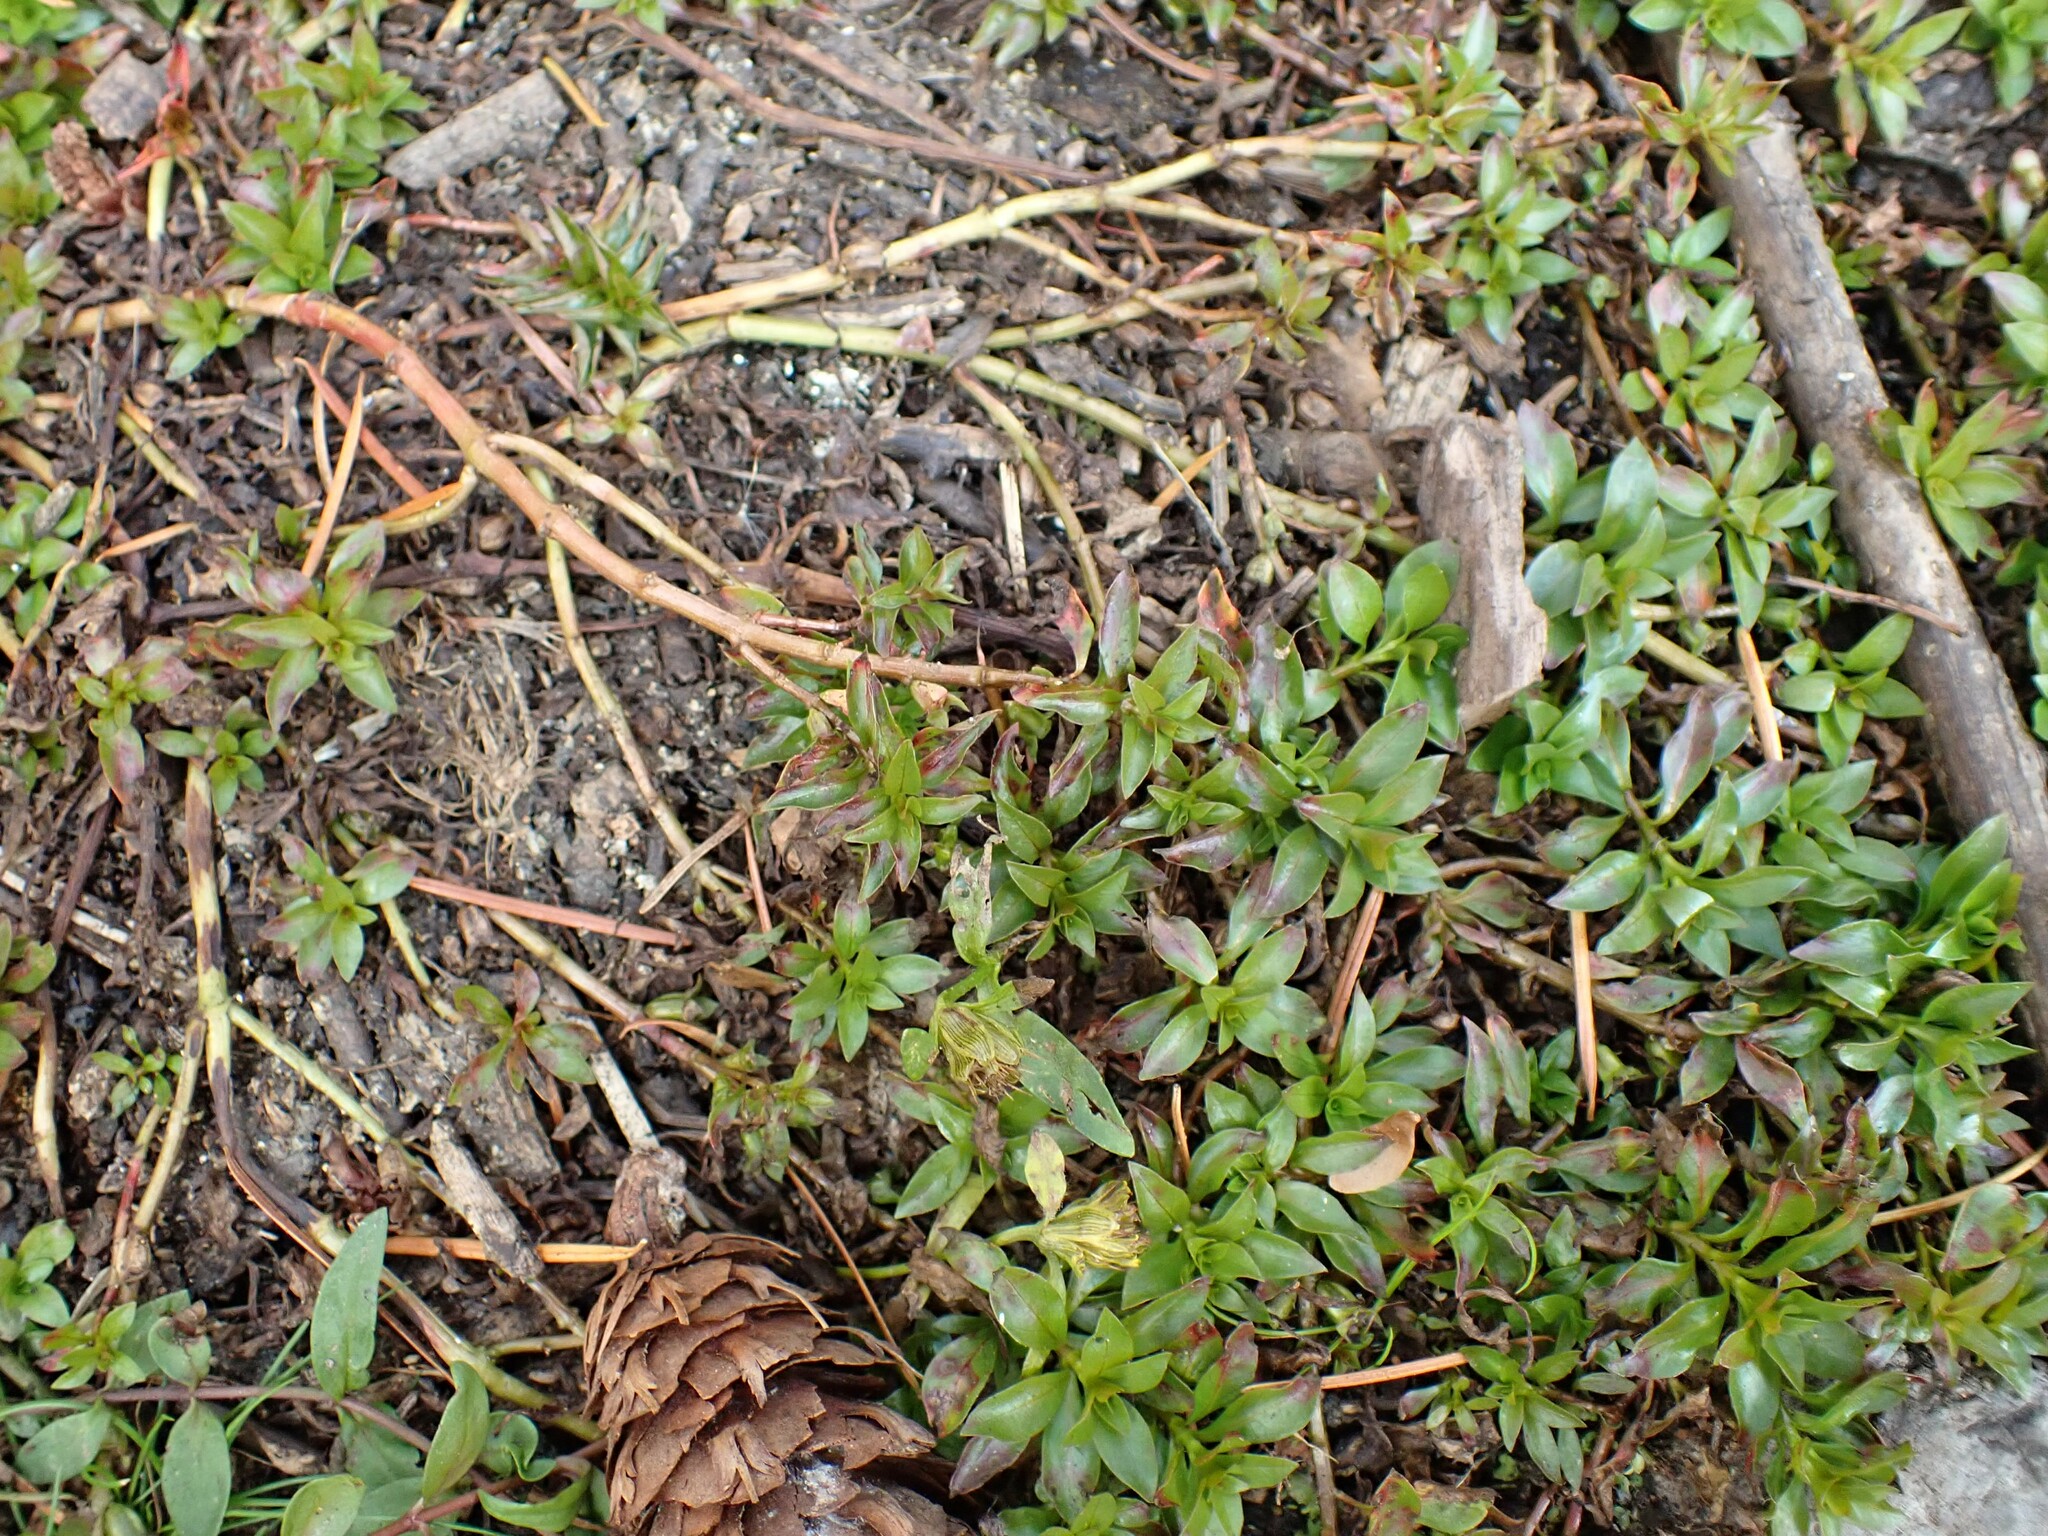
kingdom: Plantae
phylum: Tracheophyta
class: Magnoliopsida
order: Myrtales
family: Onagraceae
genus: Ludwigia
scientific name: Ludwigia palustris
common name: Hampshire-purslane
